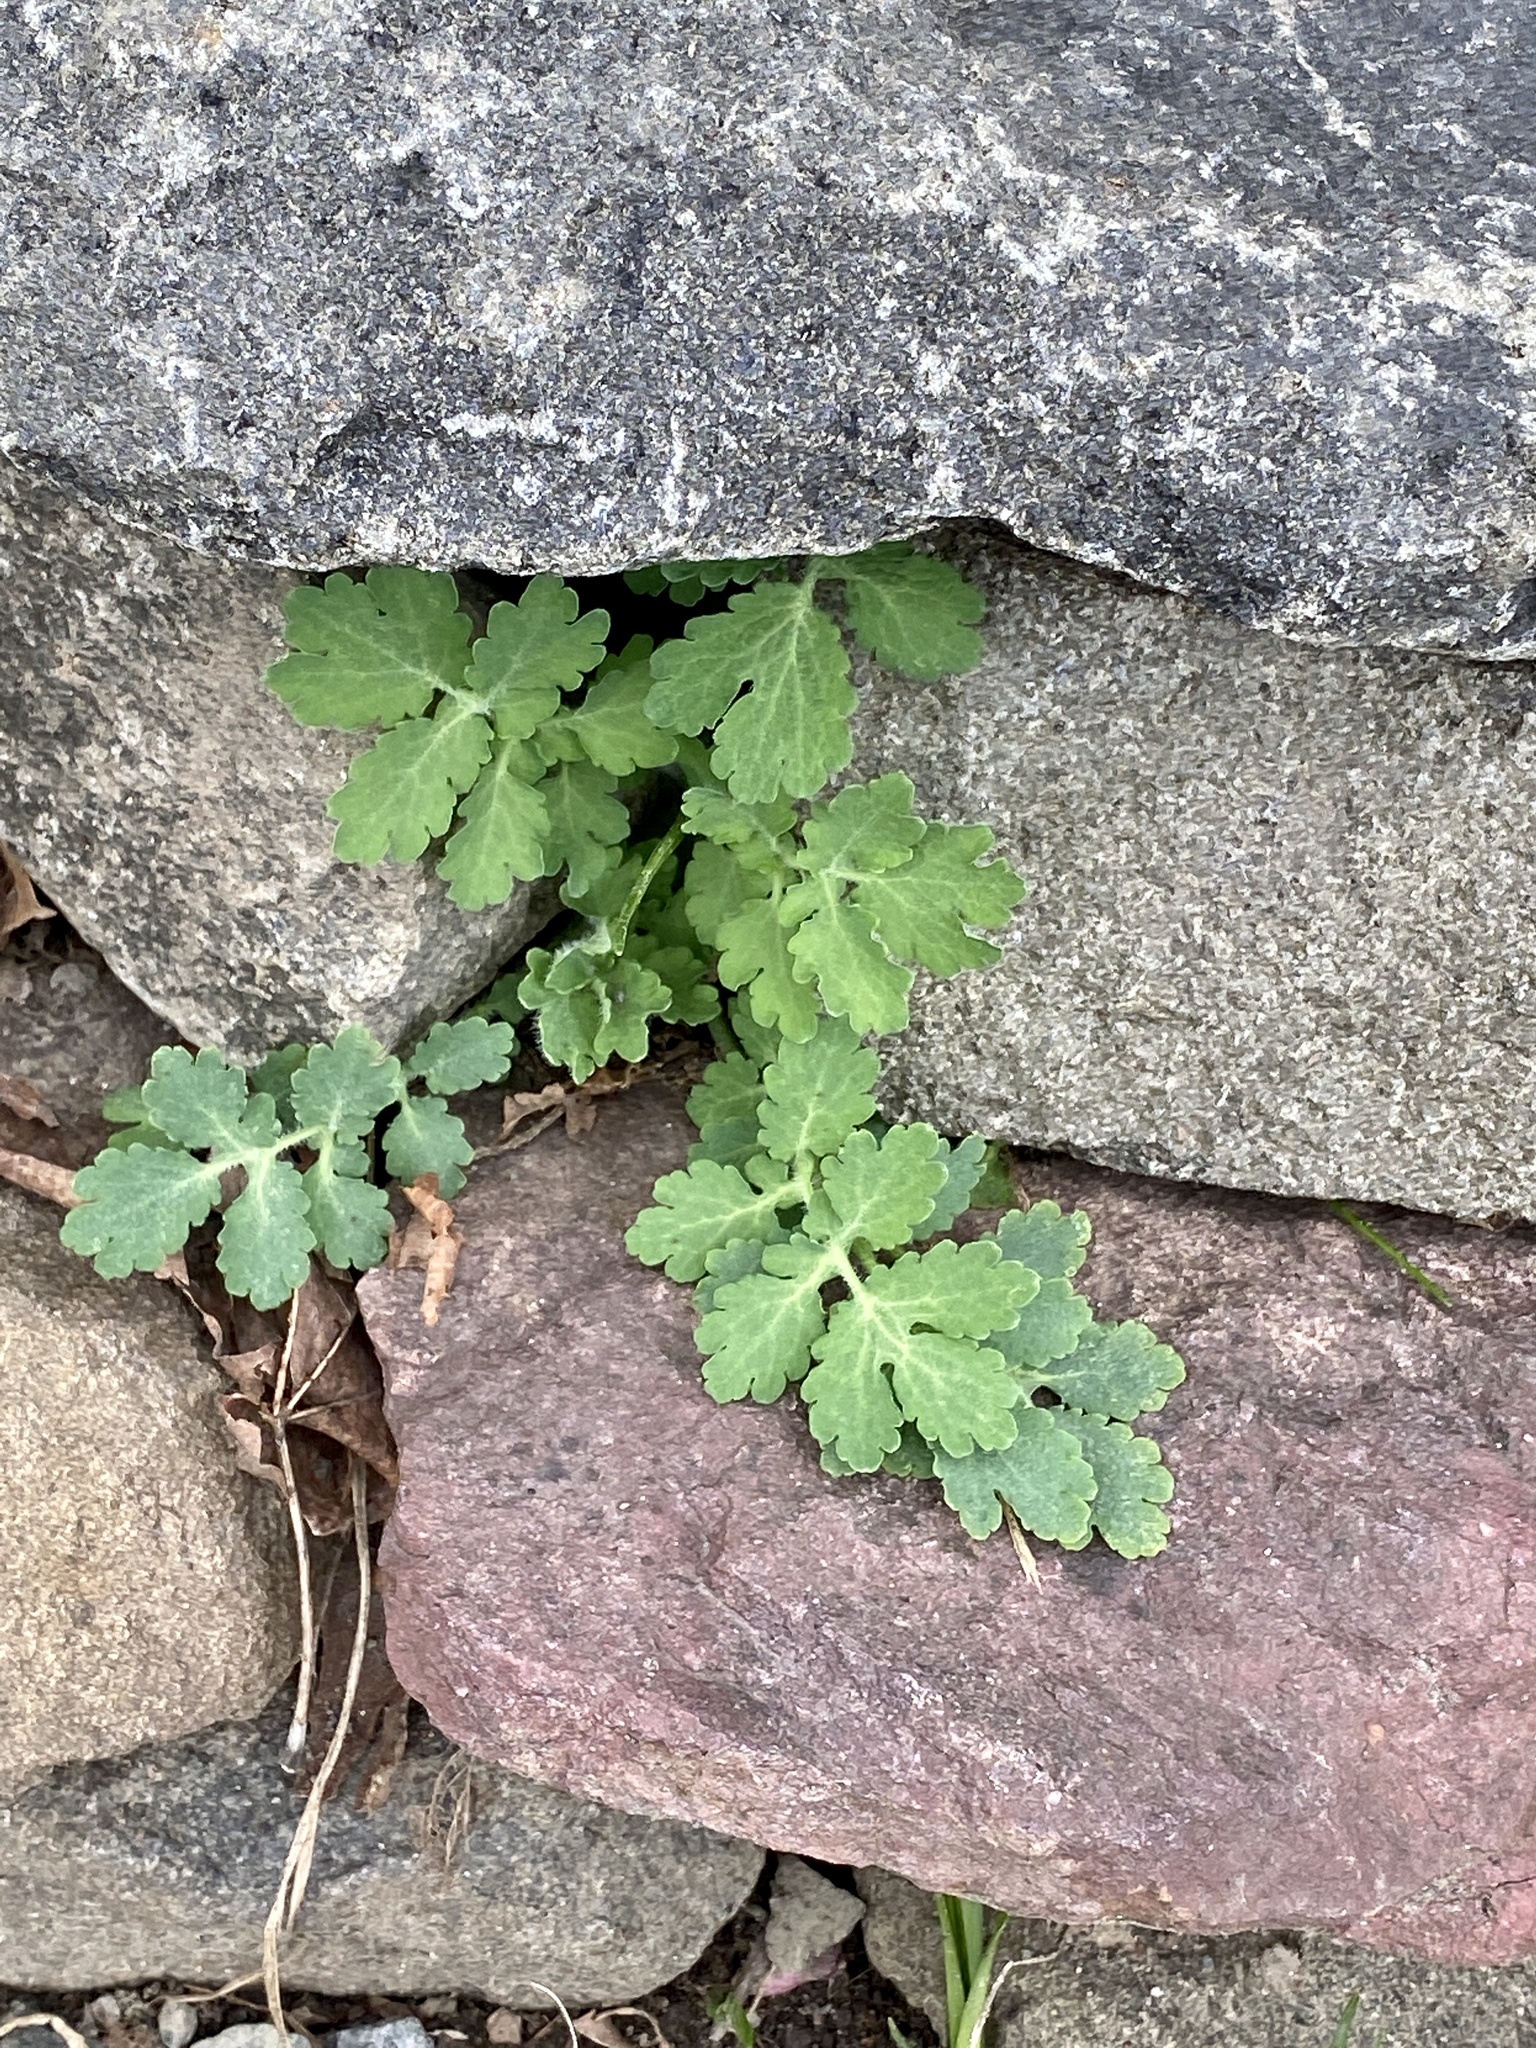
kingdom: Plantae
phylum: Tracheophyta
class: Magnoliopsida
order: Ranunculales
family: Papaveraceae
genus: Chelidonium
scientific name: Chelidonium majus
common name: Greater celandine
